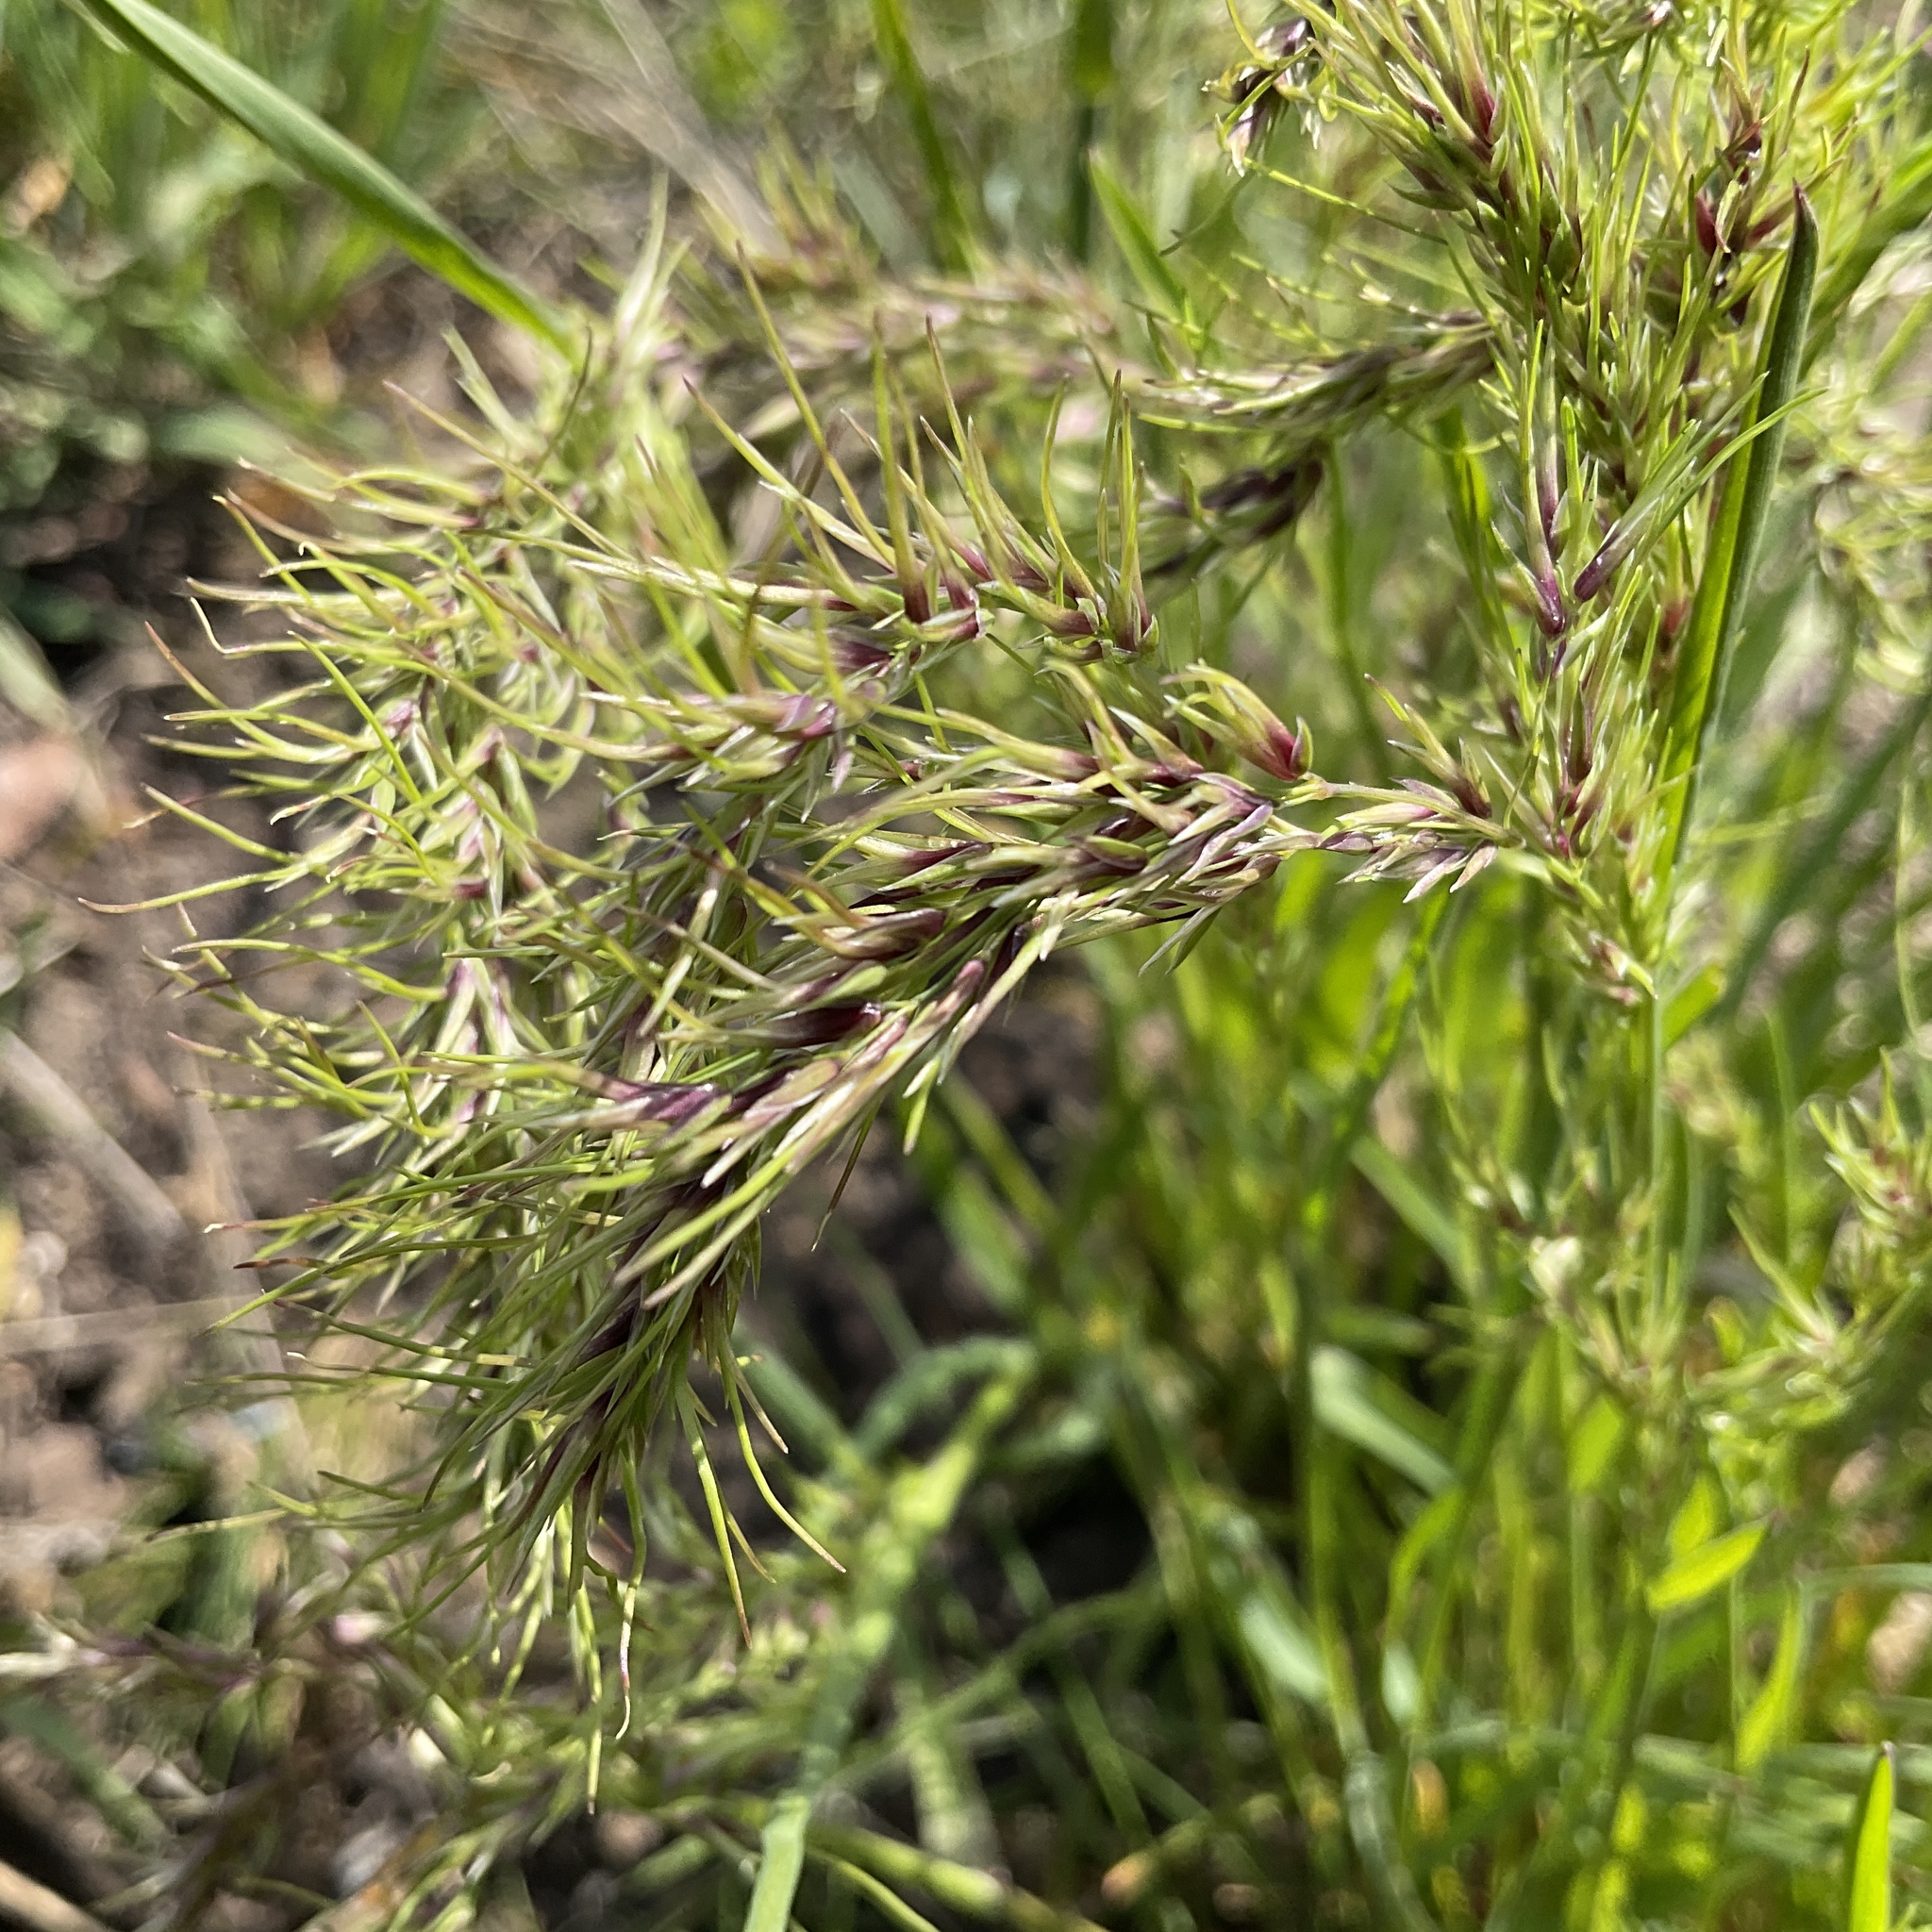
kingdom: Plantae
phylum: Tracheophyta
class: Liliopsida
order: Poales
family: Poaceae
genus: Poa
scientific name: Poa bulbosa
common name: Bulbous bluegrass
